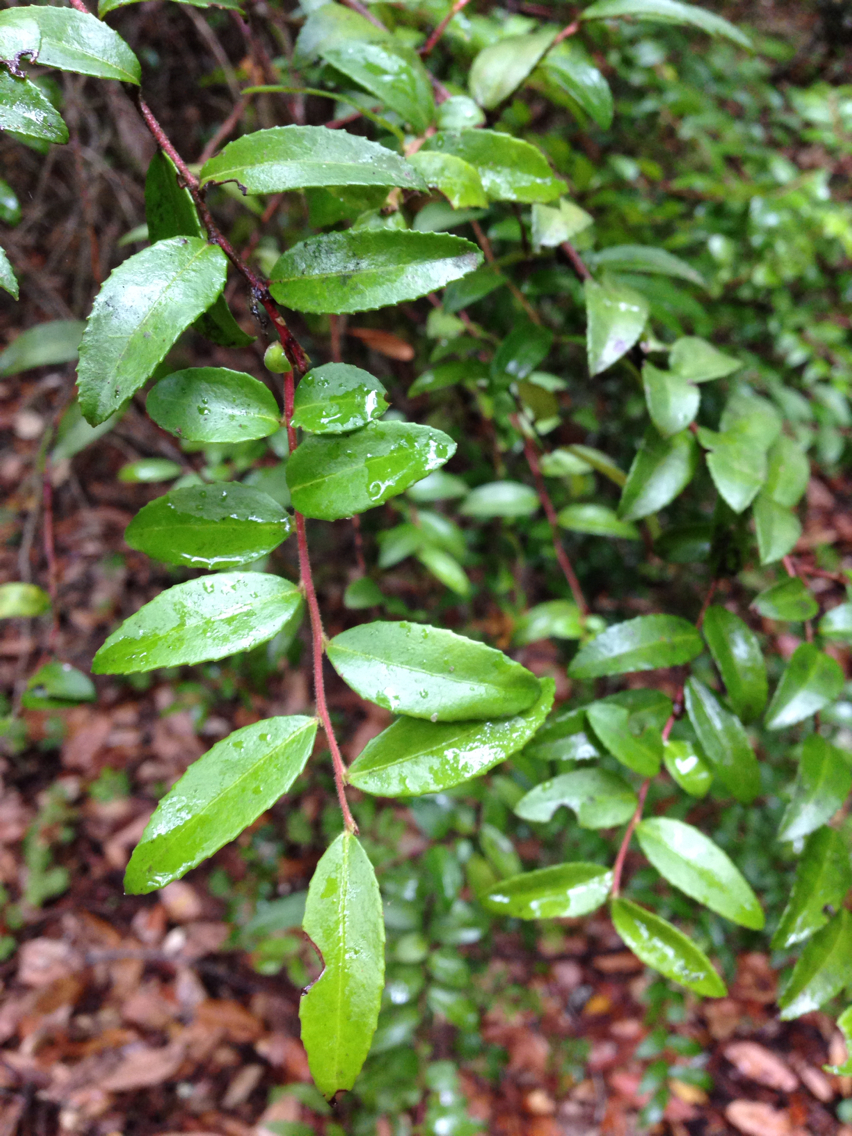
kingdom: Plantae
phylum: Tracheophyta
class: Magnoliopsida
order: Ericales
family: Ericaceae
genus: Vaccinium
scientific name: Vaccinium ovatum
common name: California-huckleberry
